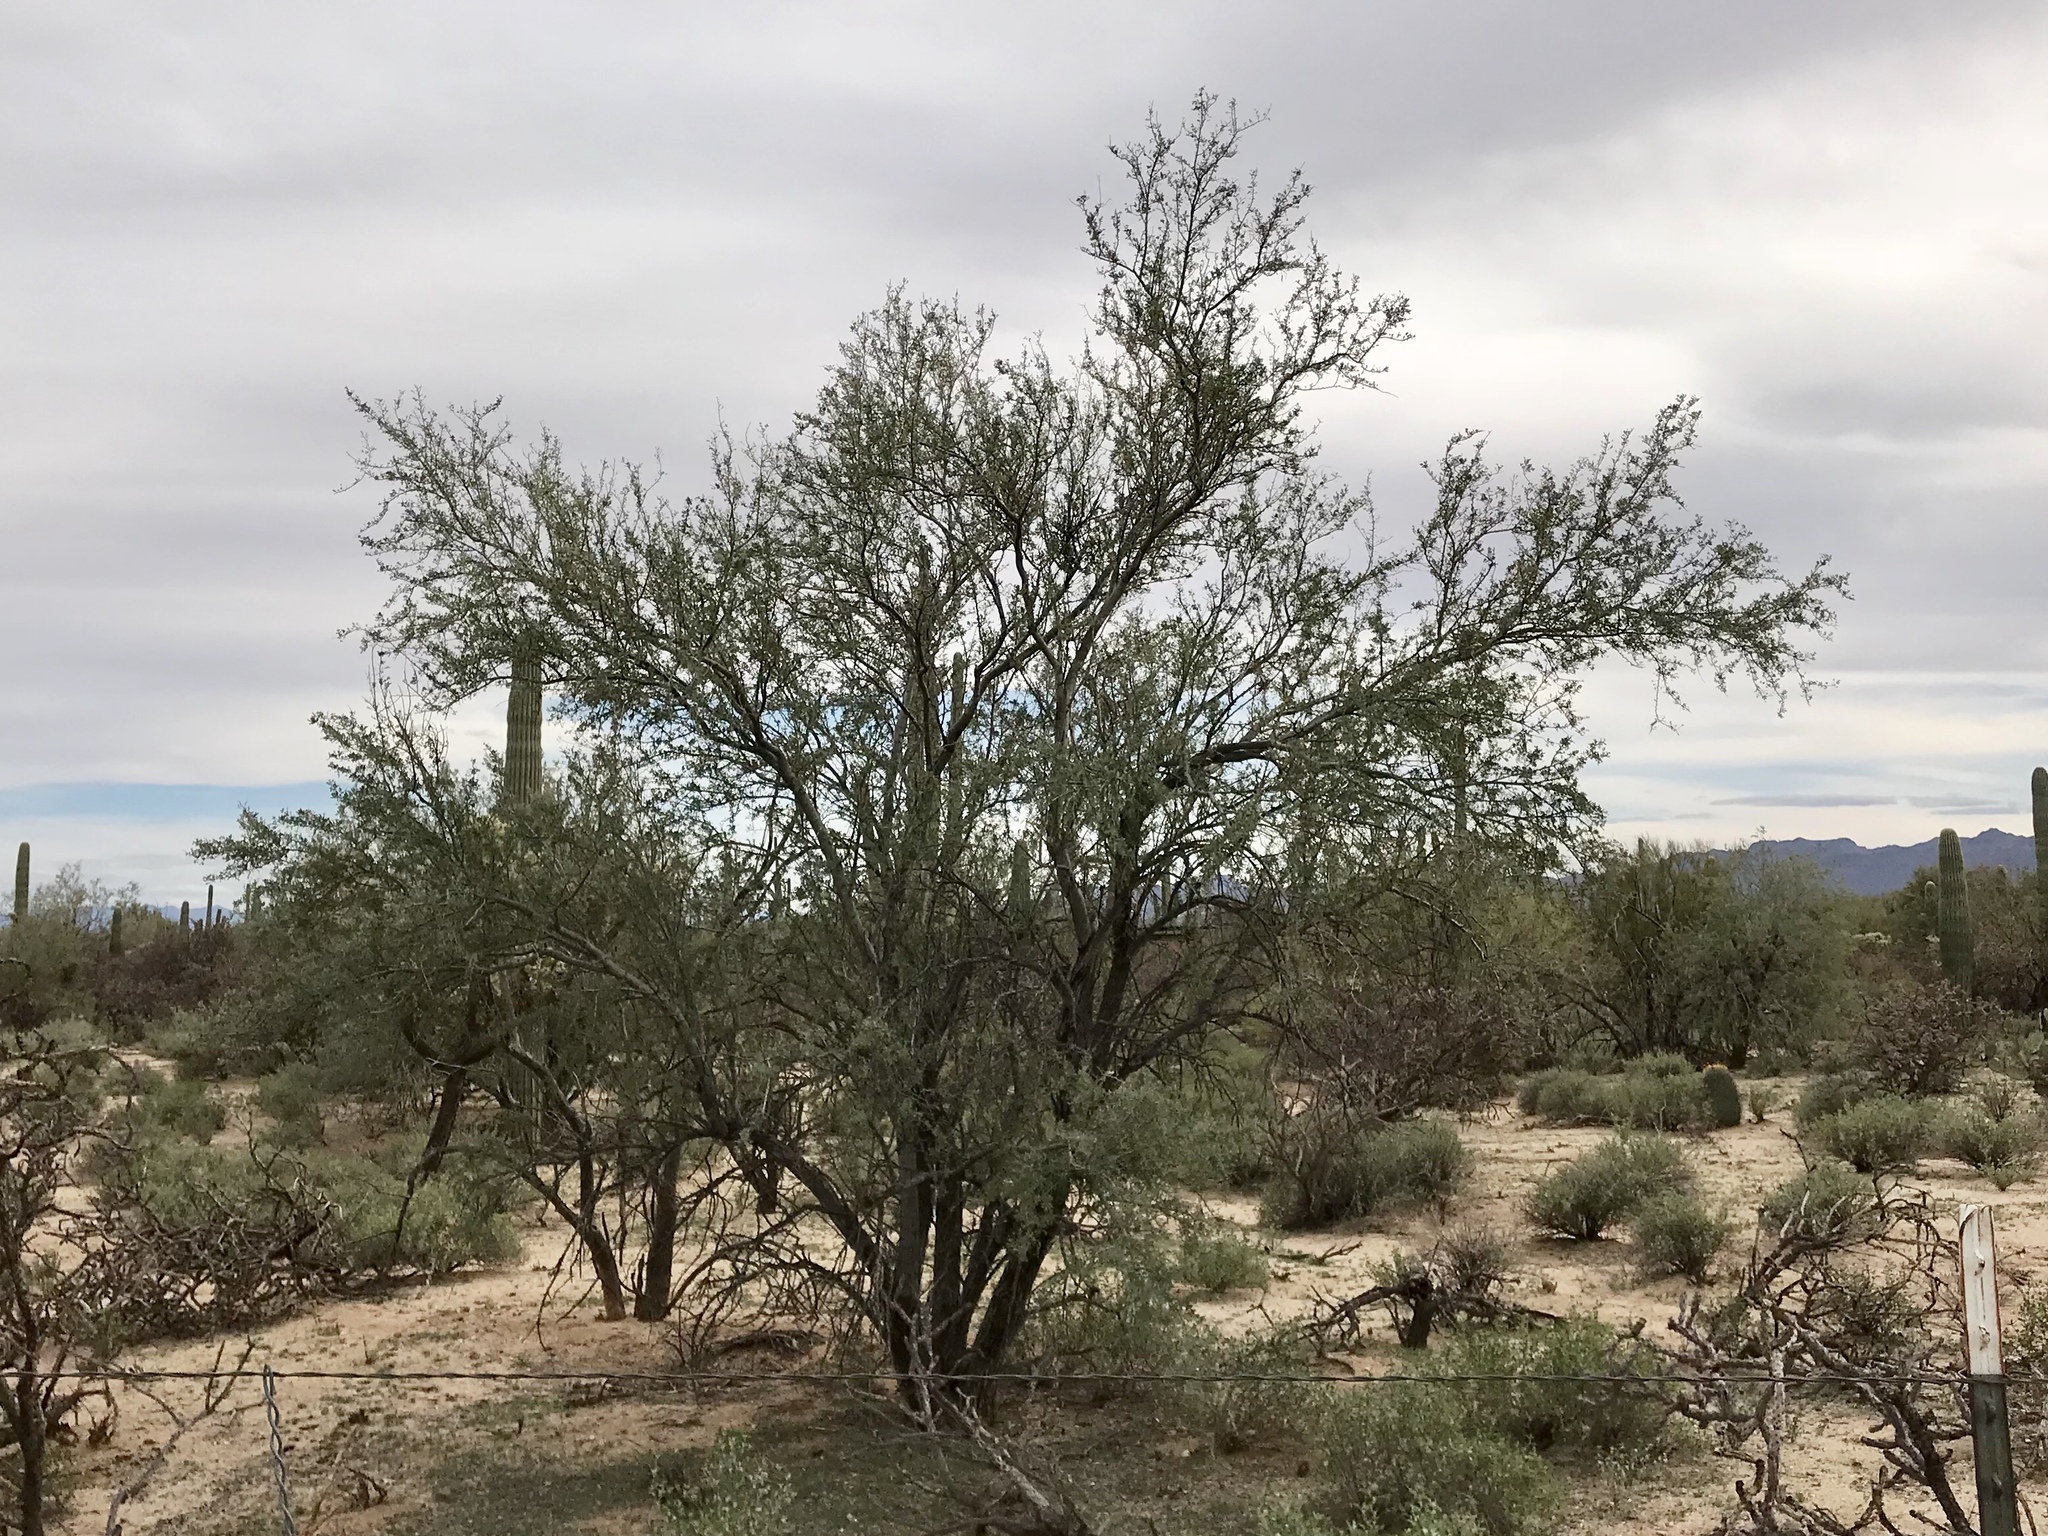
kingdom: Plantae
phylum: Tracheophyta
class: Magnoliopsida
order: Fabales
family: Fabaceae
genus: Olneya
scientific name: Olneya tesota
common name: Desert ironwood
